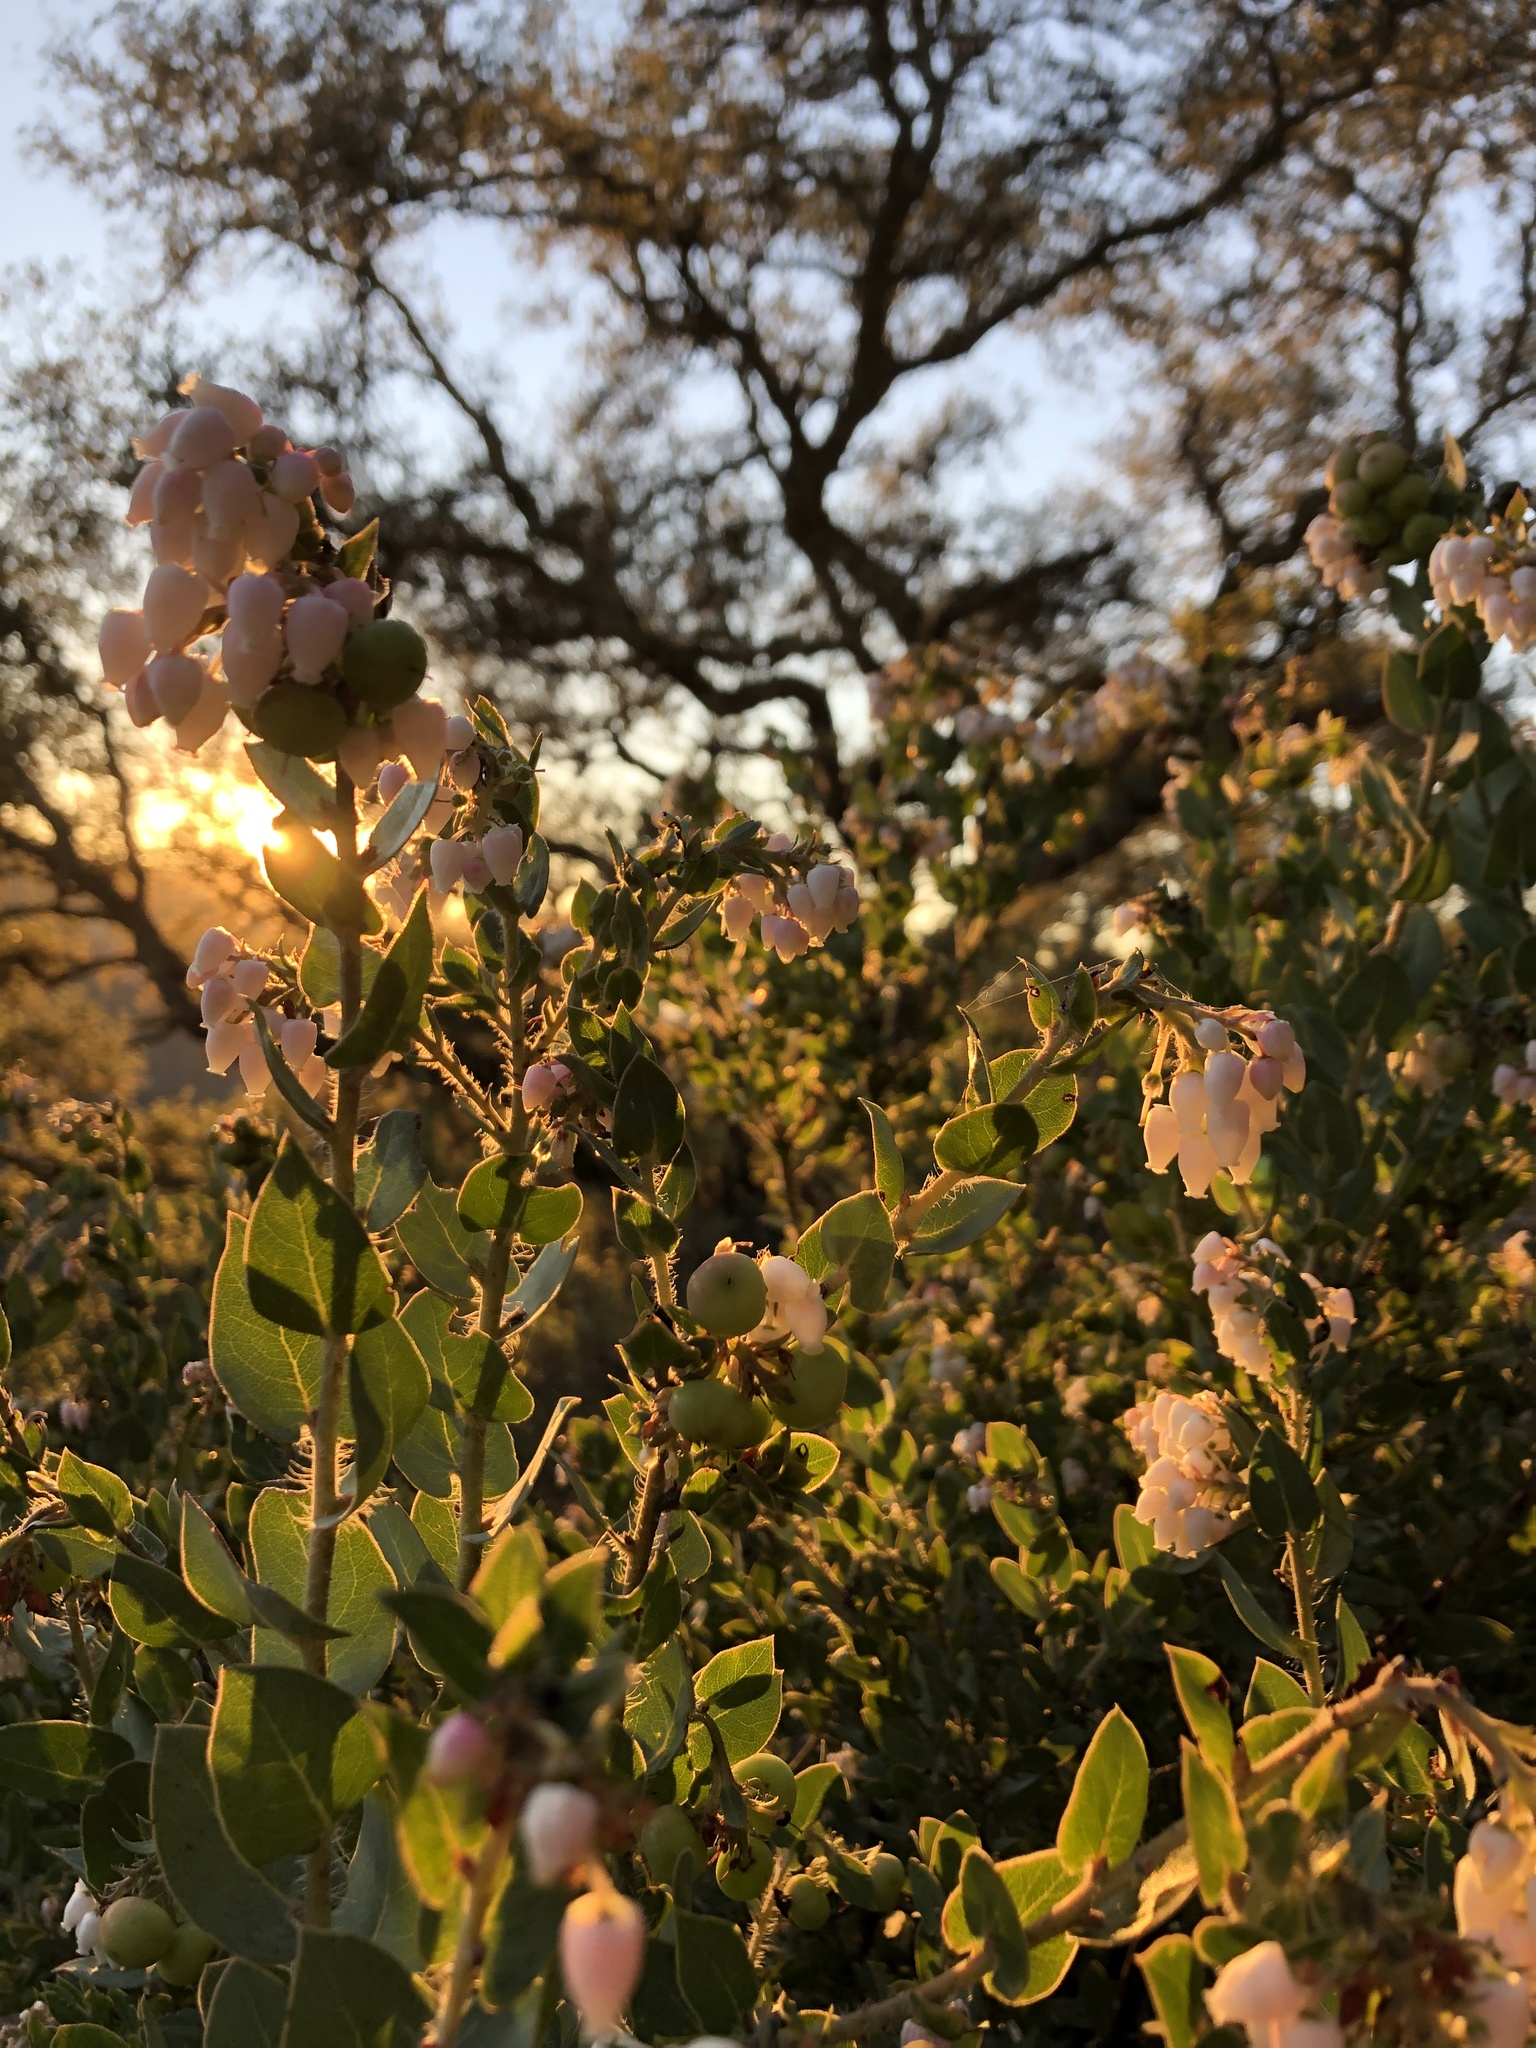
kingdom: Plantae
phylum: Tracheophyta
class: Magnoliopsida
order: Ericales
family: Ericaceae
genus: Arctostaphylos
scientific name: Arctostaphylos pechoensis
